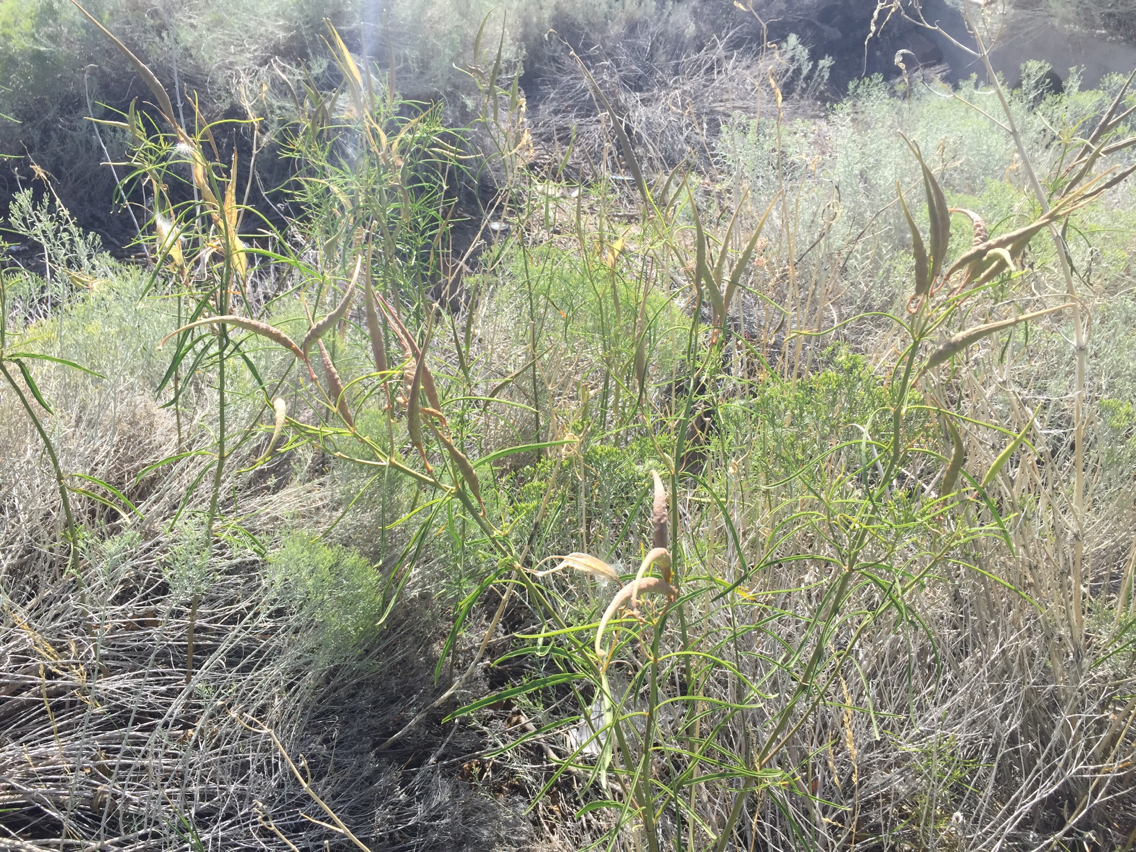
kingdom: Plantae
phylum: Tracheophyta
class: Magnoliopsida
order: Gentianales
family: Apocynaceae
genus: Asclepias
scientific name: Asclepias fascicularis
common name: Mexican milkweed
